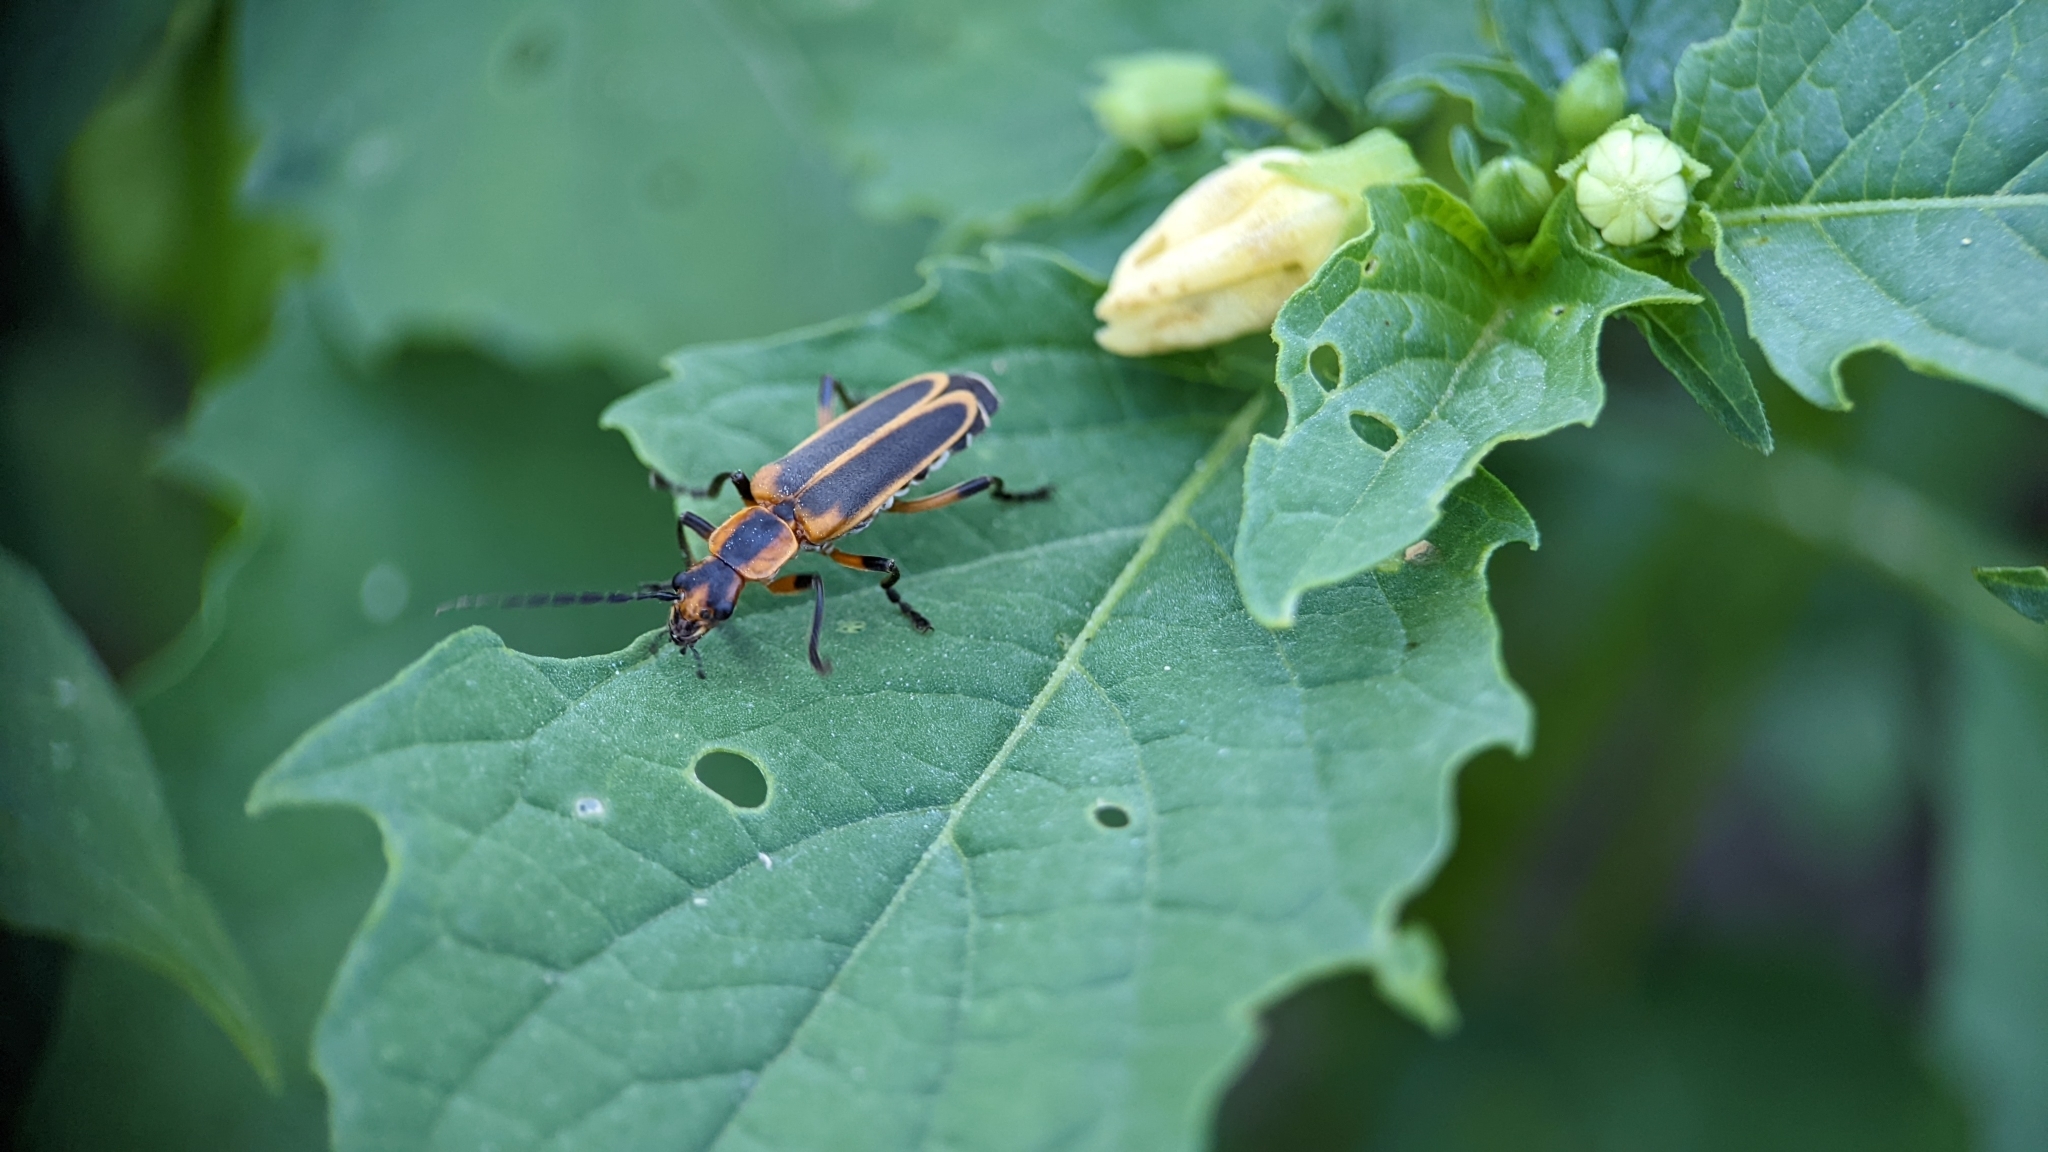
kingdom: Animalia
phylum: Arthropoda
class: Insecta
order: Coleoptera
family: Cantharidae
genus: Chauliognathus
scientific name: Chauliognathus marginatus
